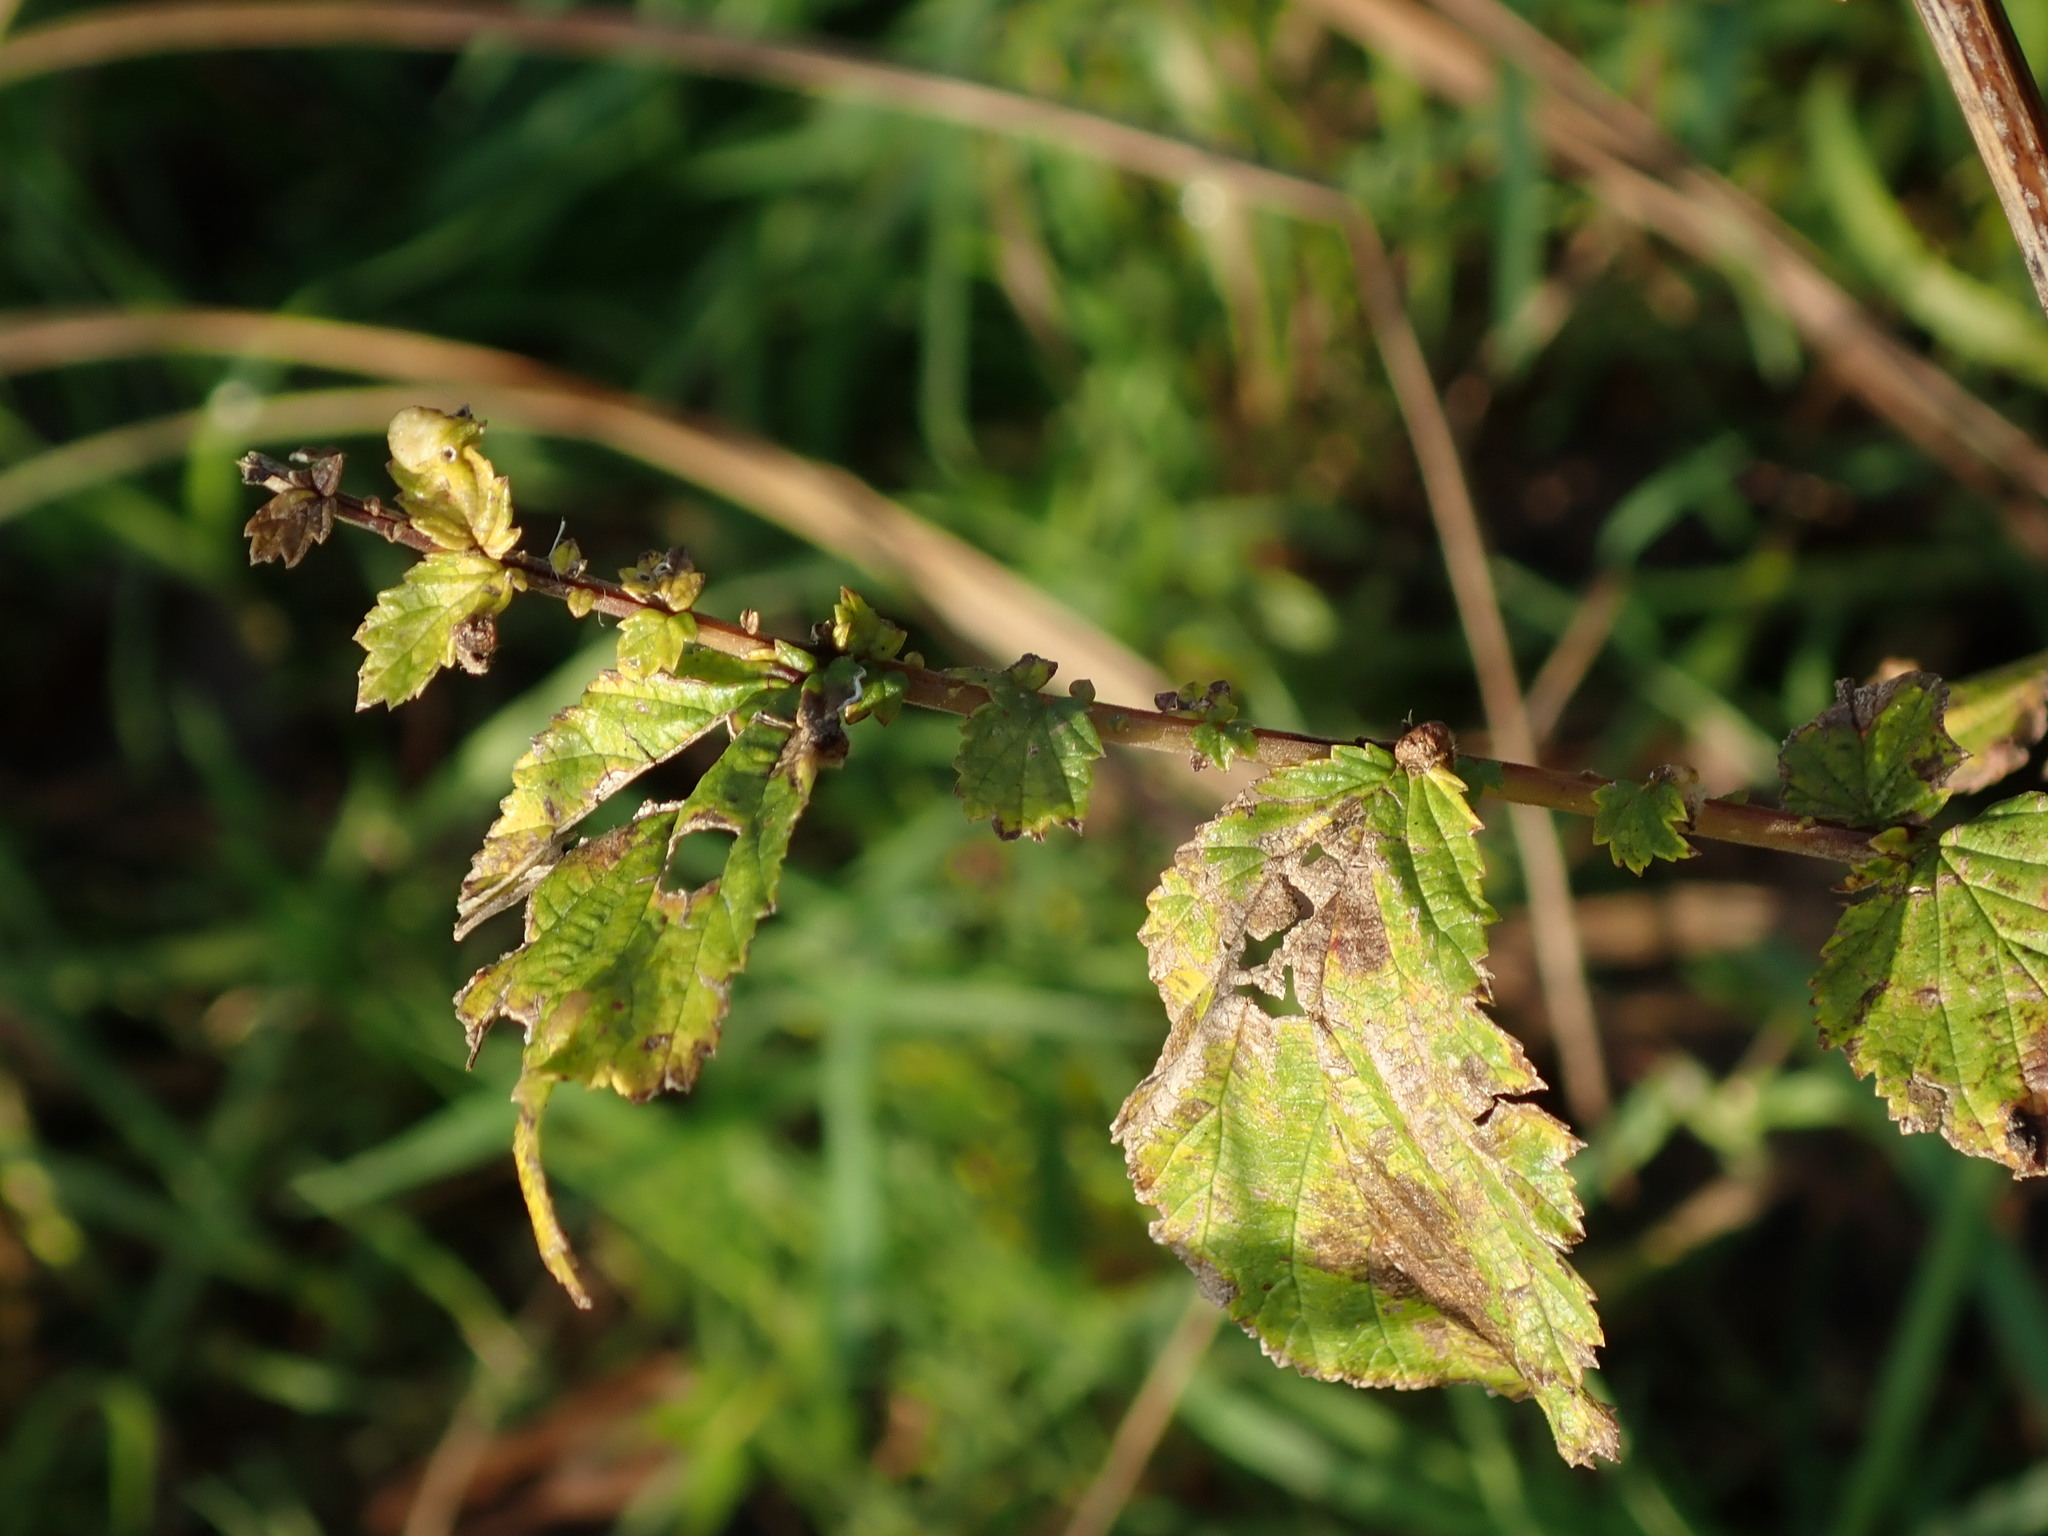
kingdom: Plantae
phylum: Tracheophyta
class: Magnoliopsida
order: Rosales
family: Rosaceae
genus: Filipendula
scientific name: Filipendula ulmaria
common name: Meadowsweet
